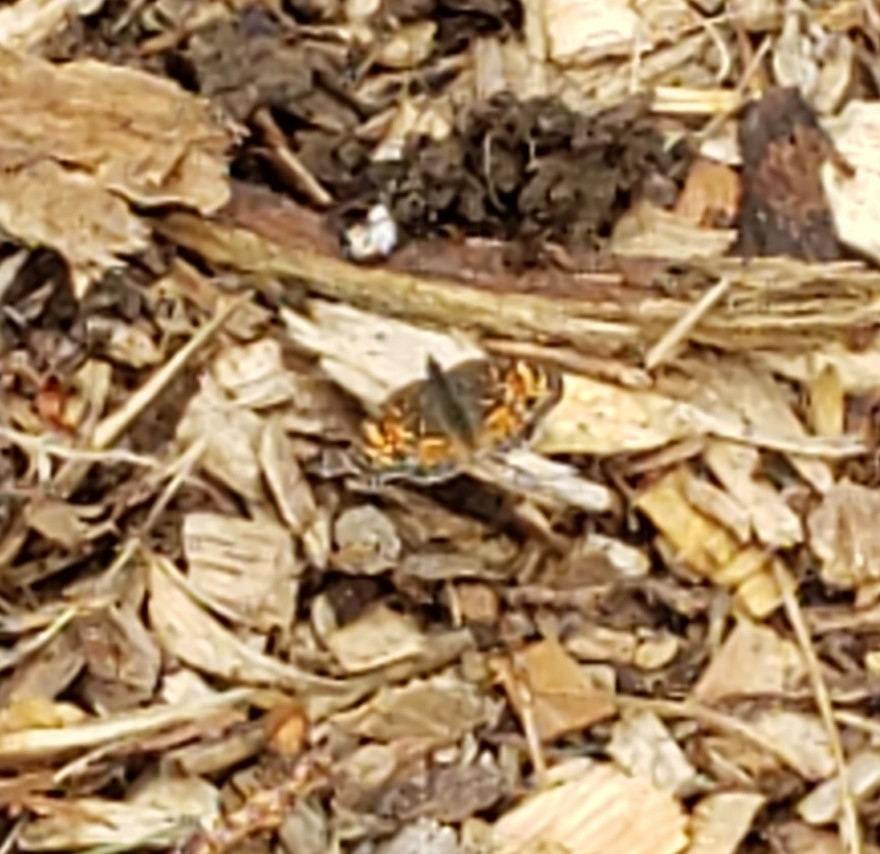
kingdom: Animalia
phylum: Arthropoda
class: Insecta
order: Lepidoptera
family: Nymphalidae
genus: Phyciodes
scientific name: Phyciodes tharos
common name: Pearl crescent
